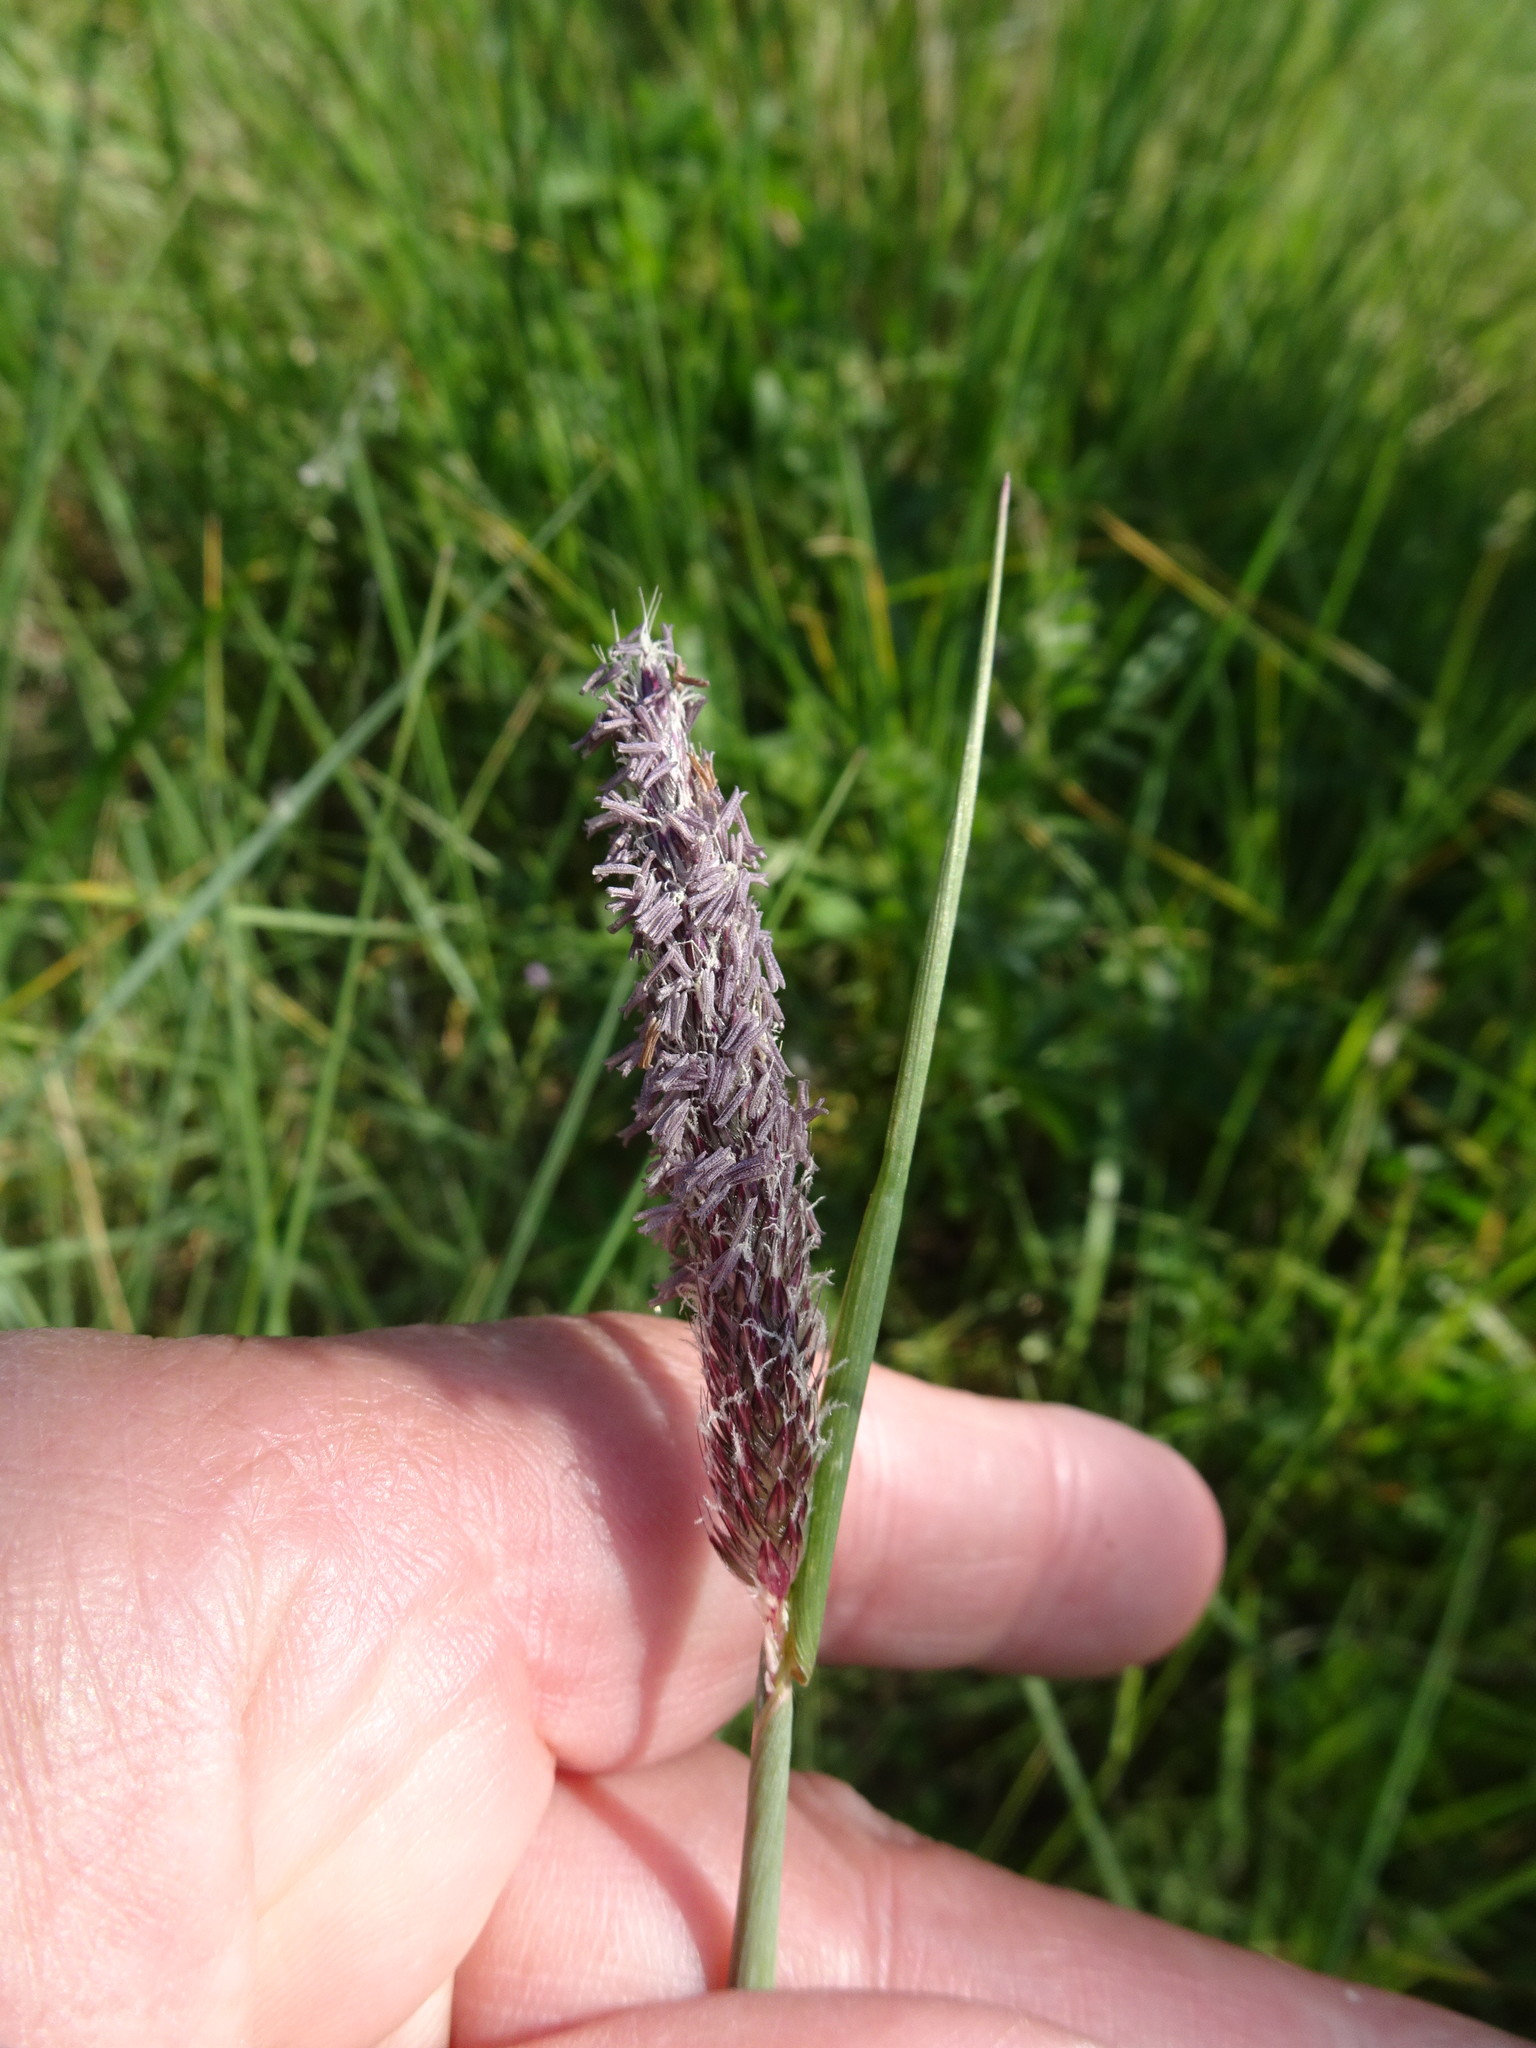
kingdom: Plantae
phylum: Tracheophyta
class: Liliopsida
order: Poales
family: Poaceae
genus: Alopecurus
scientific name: Alopecurus pratensis
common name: Meadow foxtail
